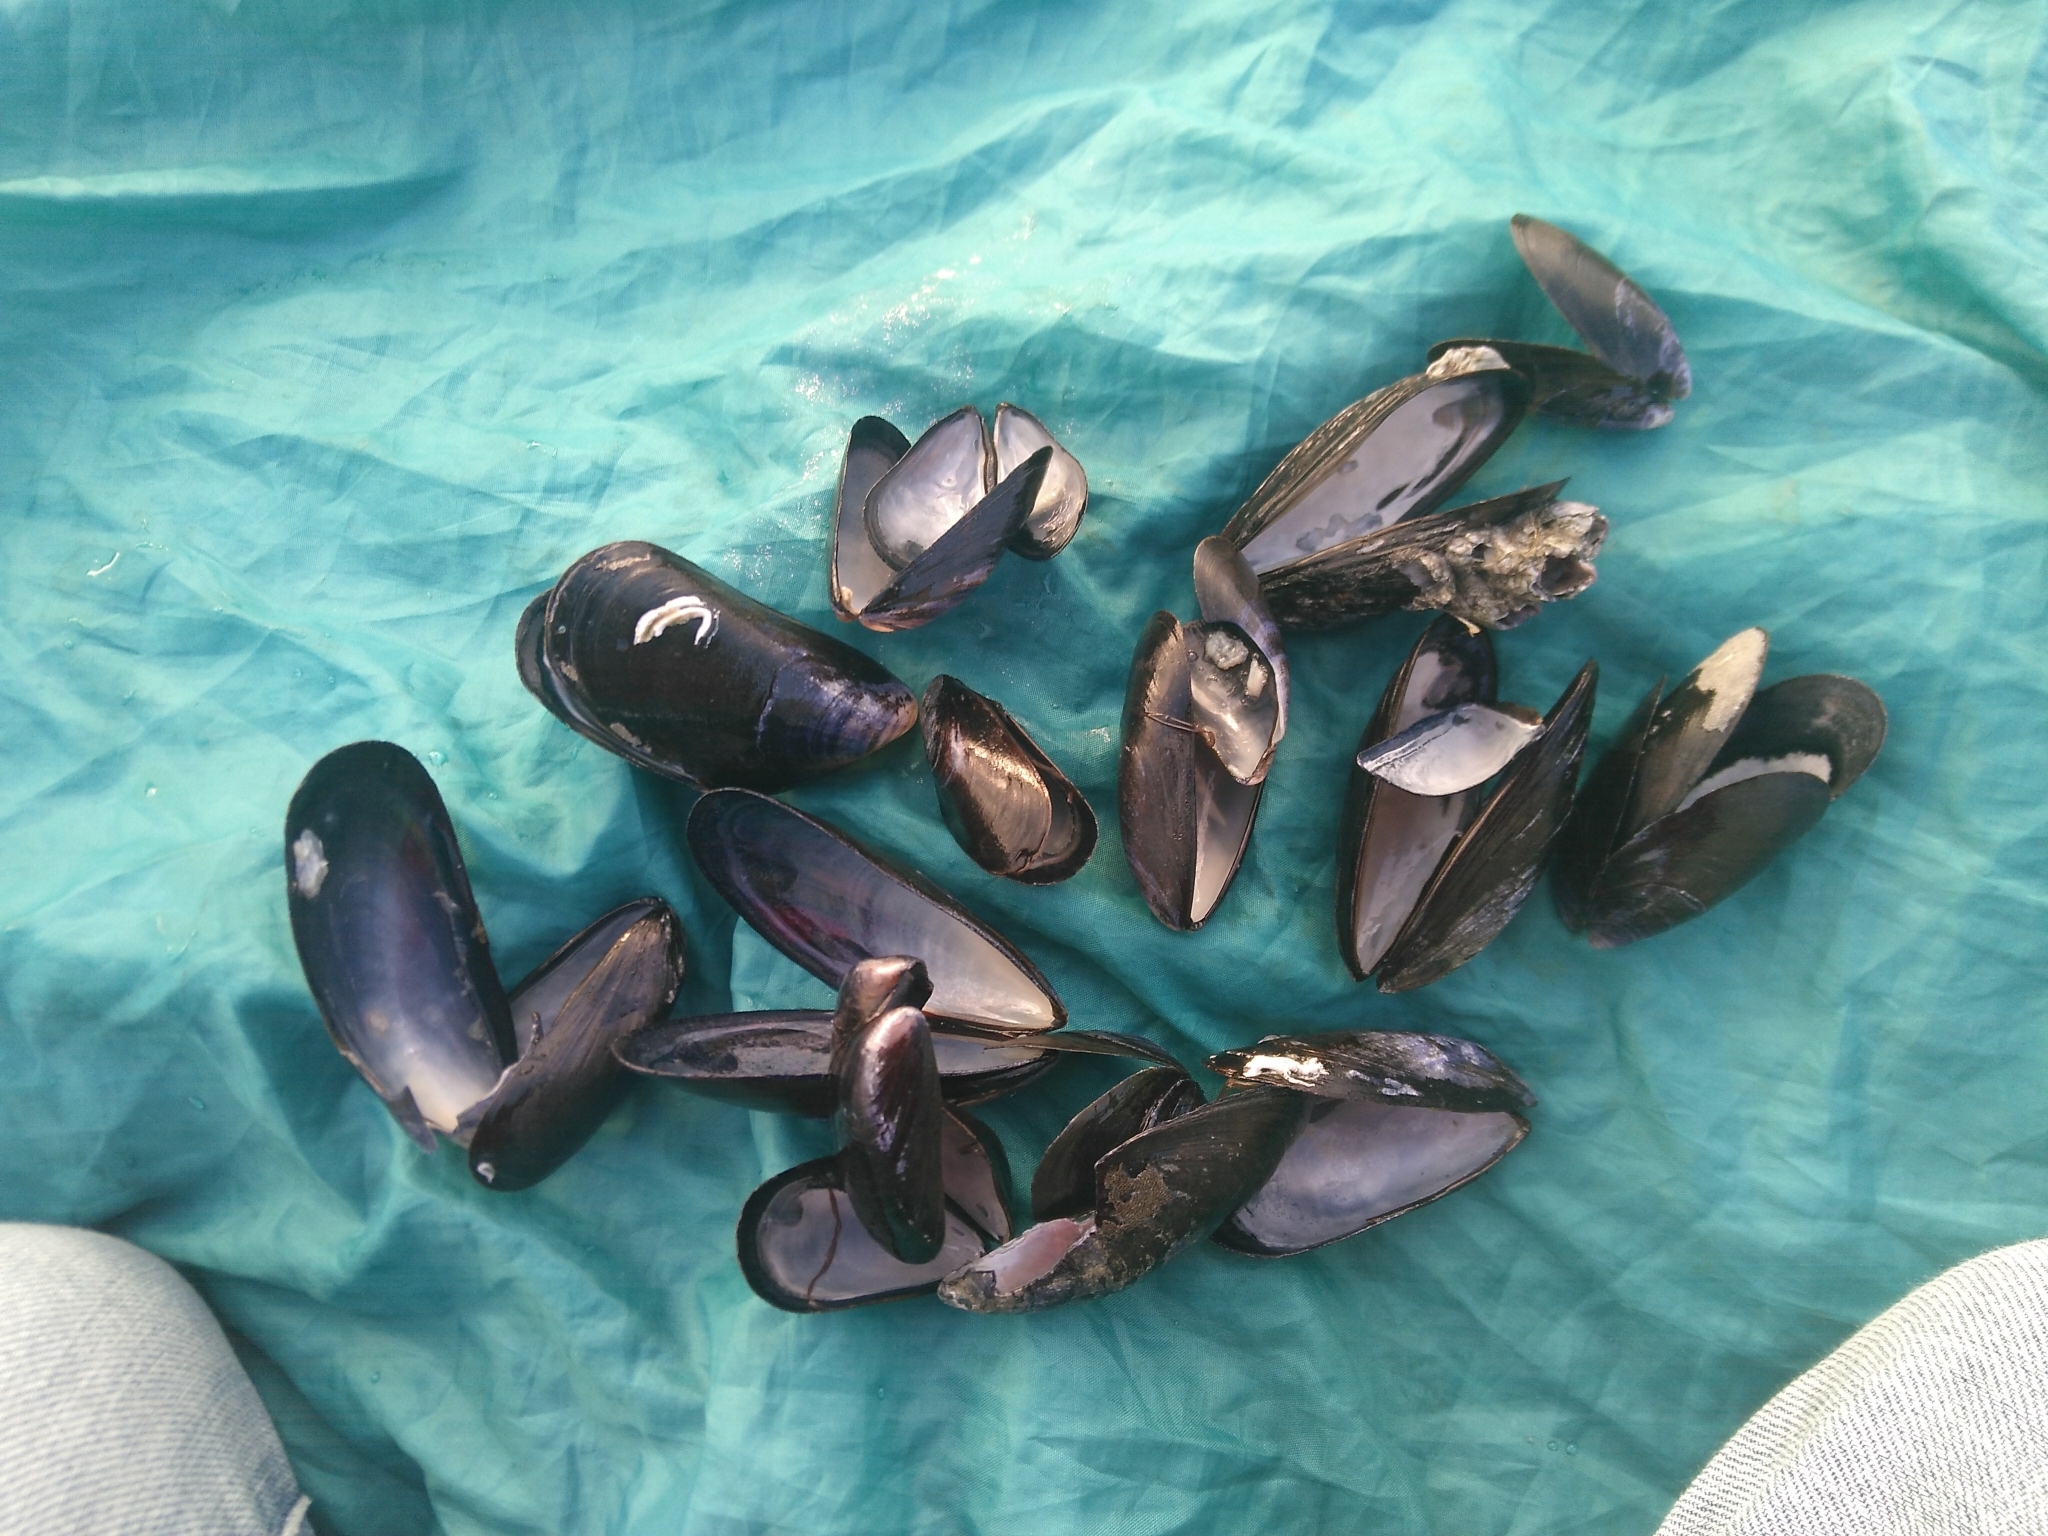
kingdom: Animalia
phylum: Mollusca
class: Bivalvia
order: Mytilida
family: Mytilidae
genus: Mytilus
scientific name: Mytilus edulis
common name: Blue mussel
